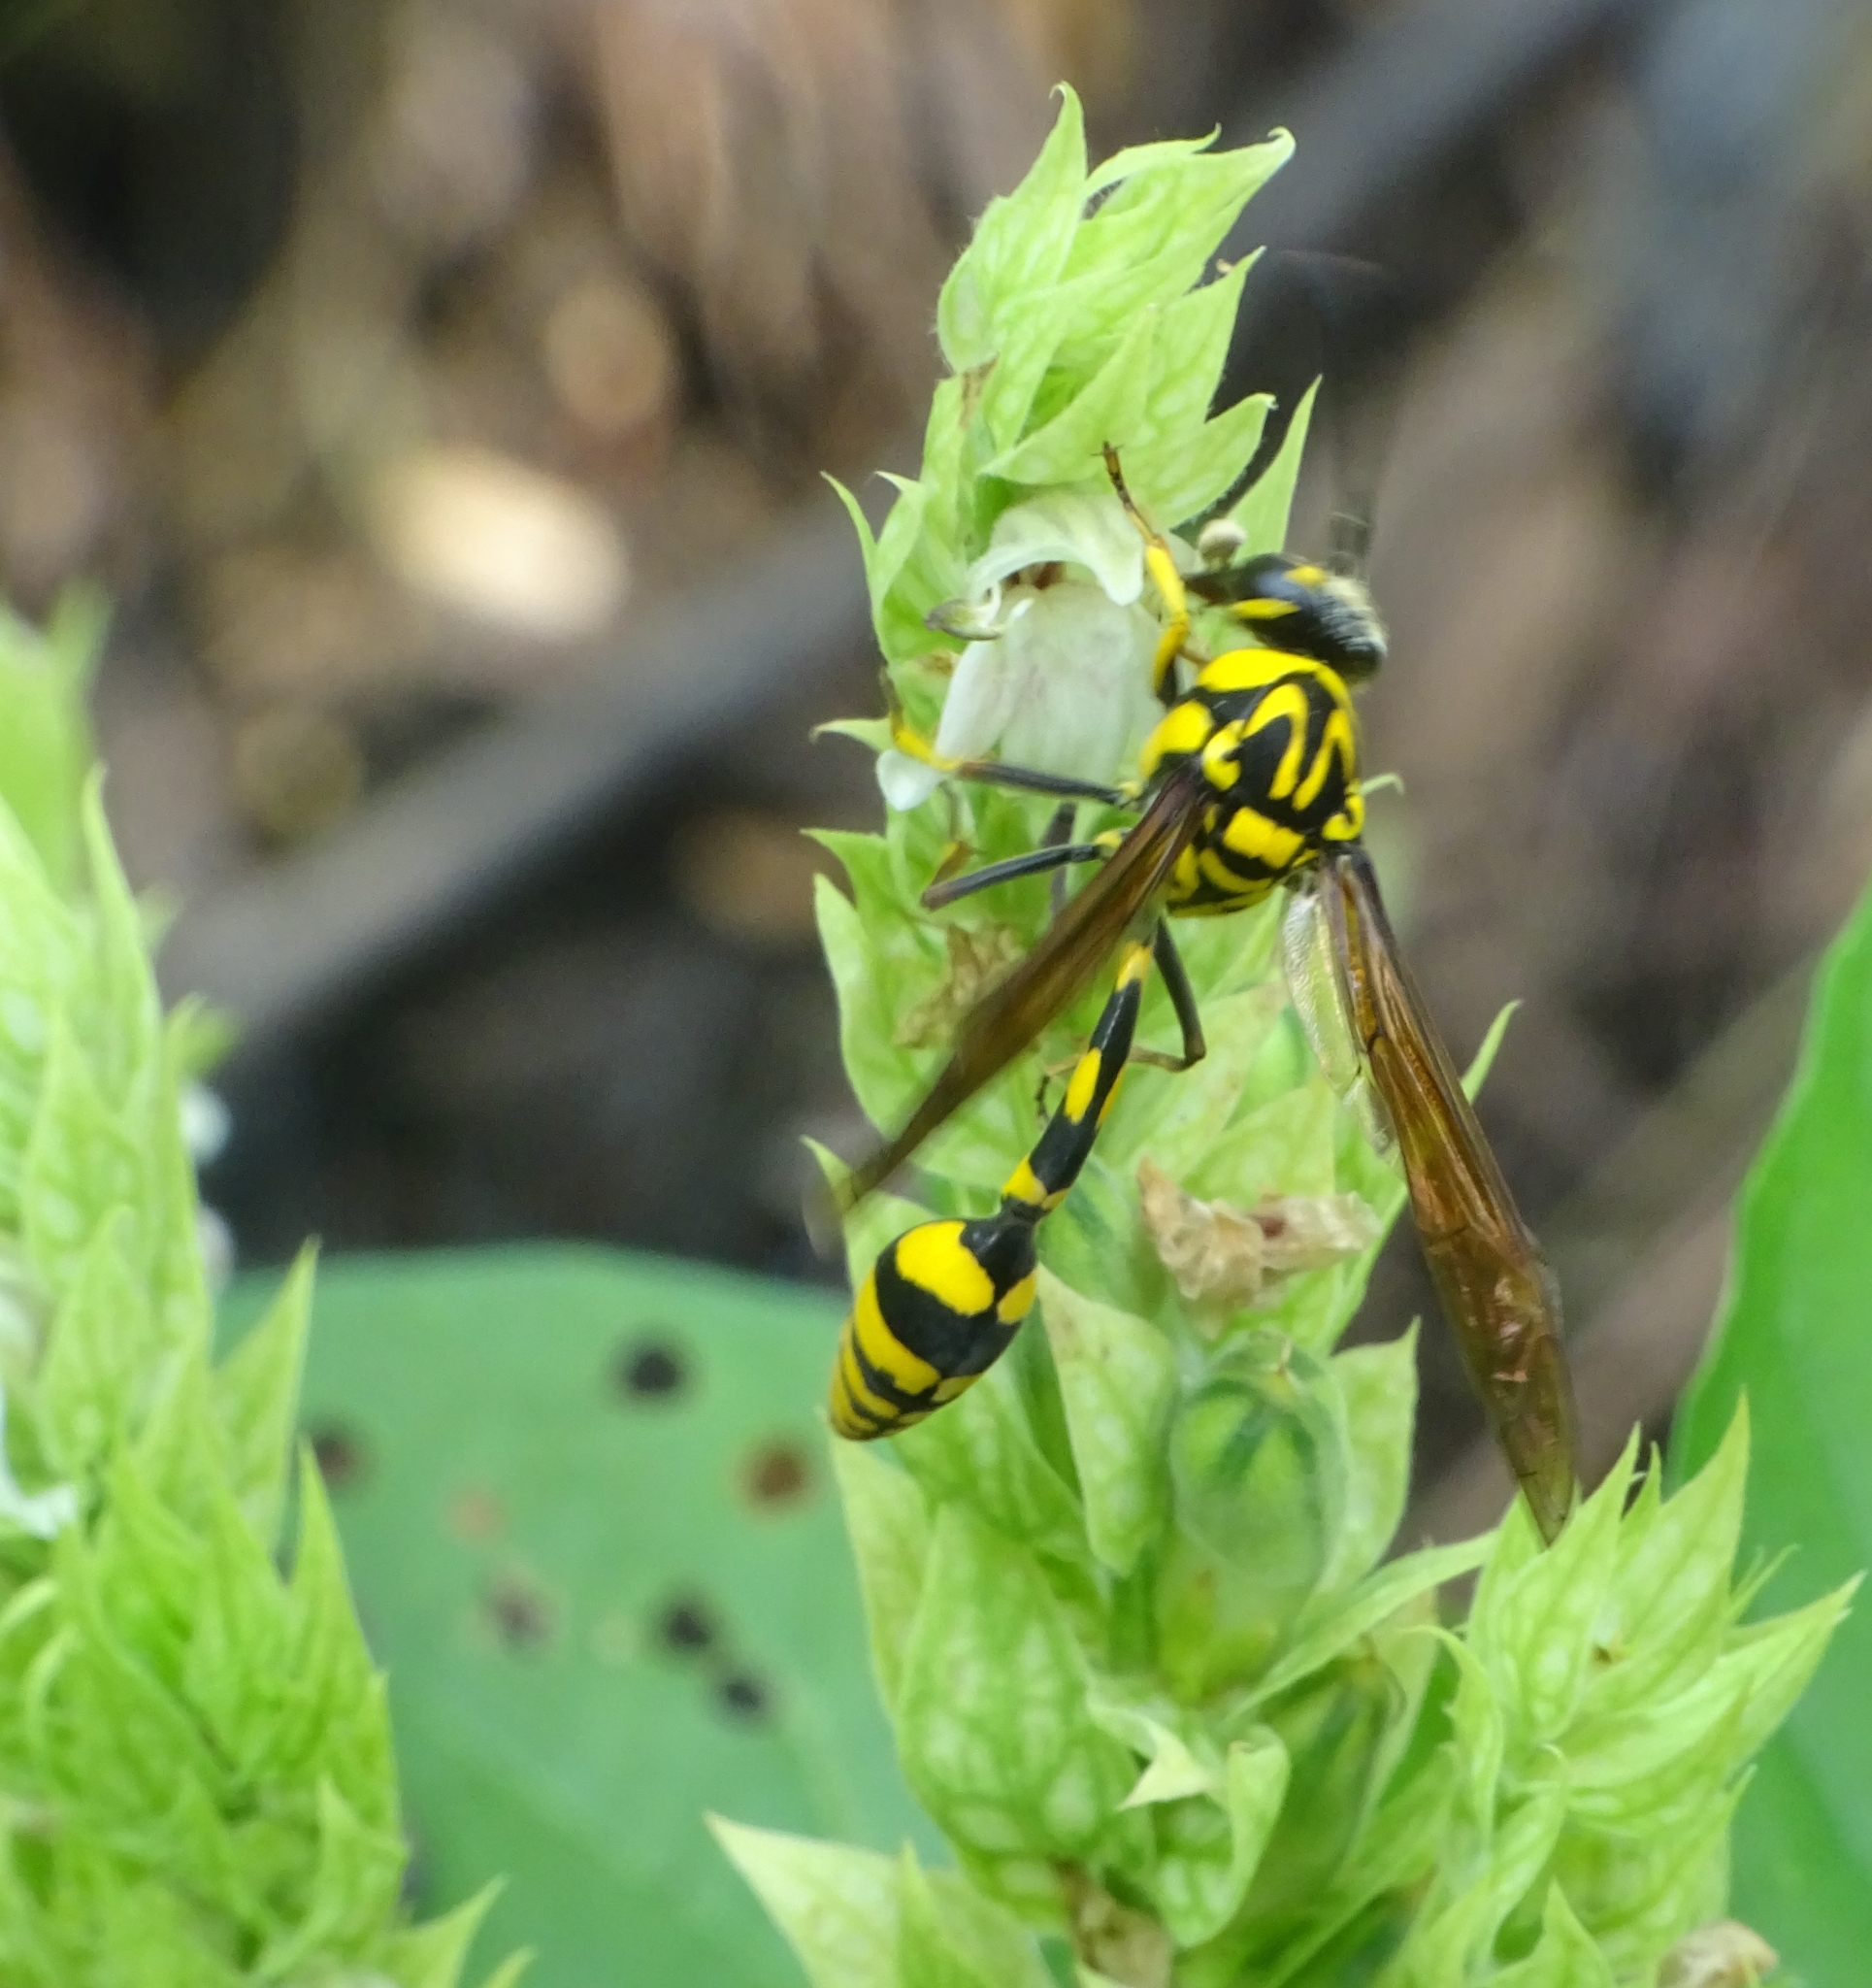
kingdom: Animalia
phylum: Arthropoda
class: Insecta
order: Hymenoptera
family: Eumenidae
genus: Phimenes
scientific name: Phimenes flavopictus
